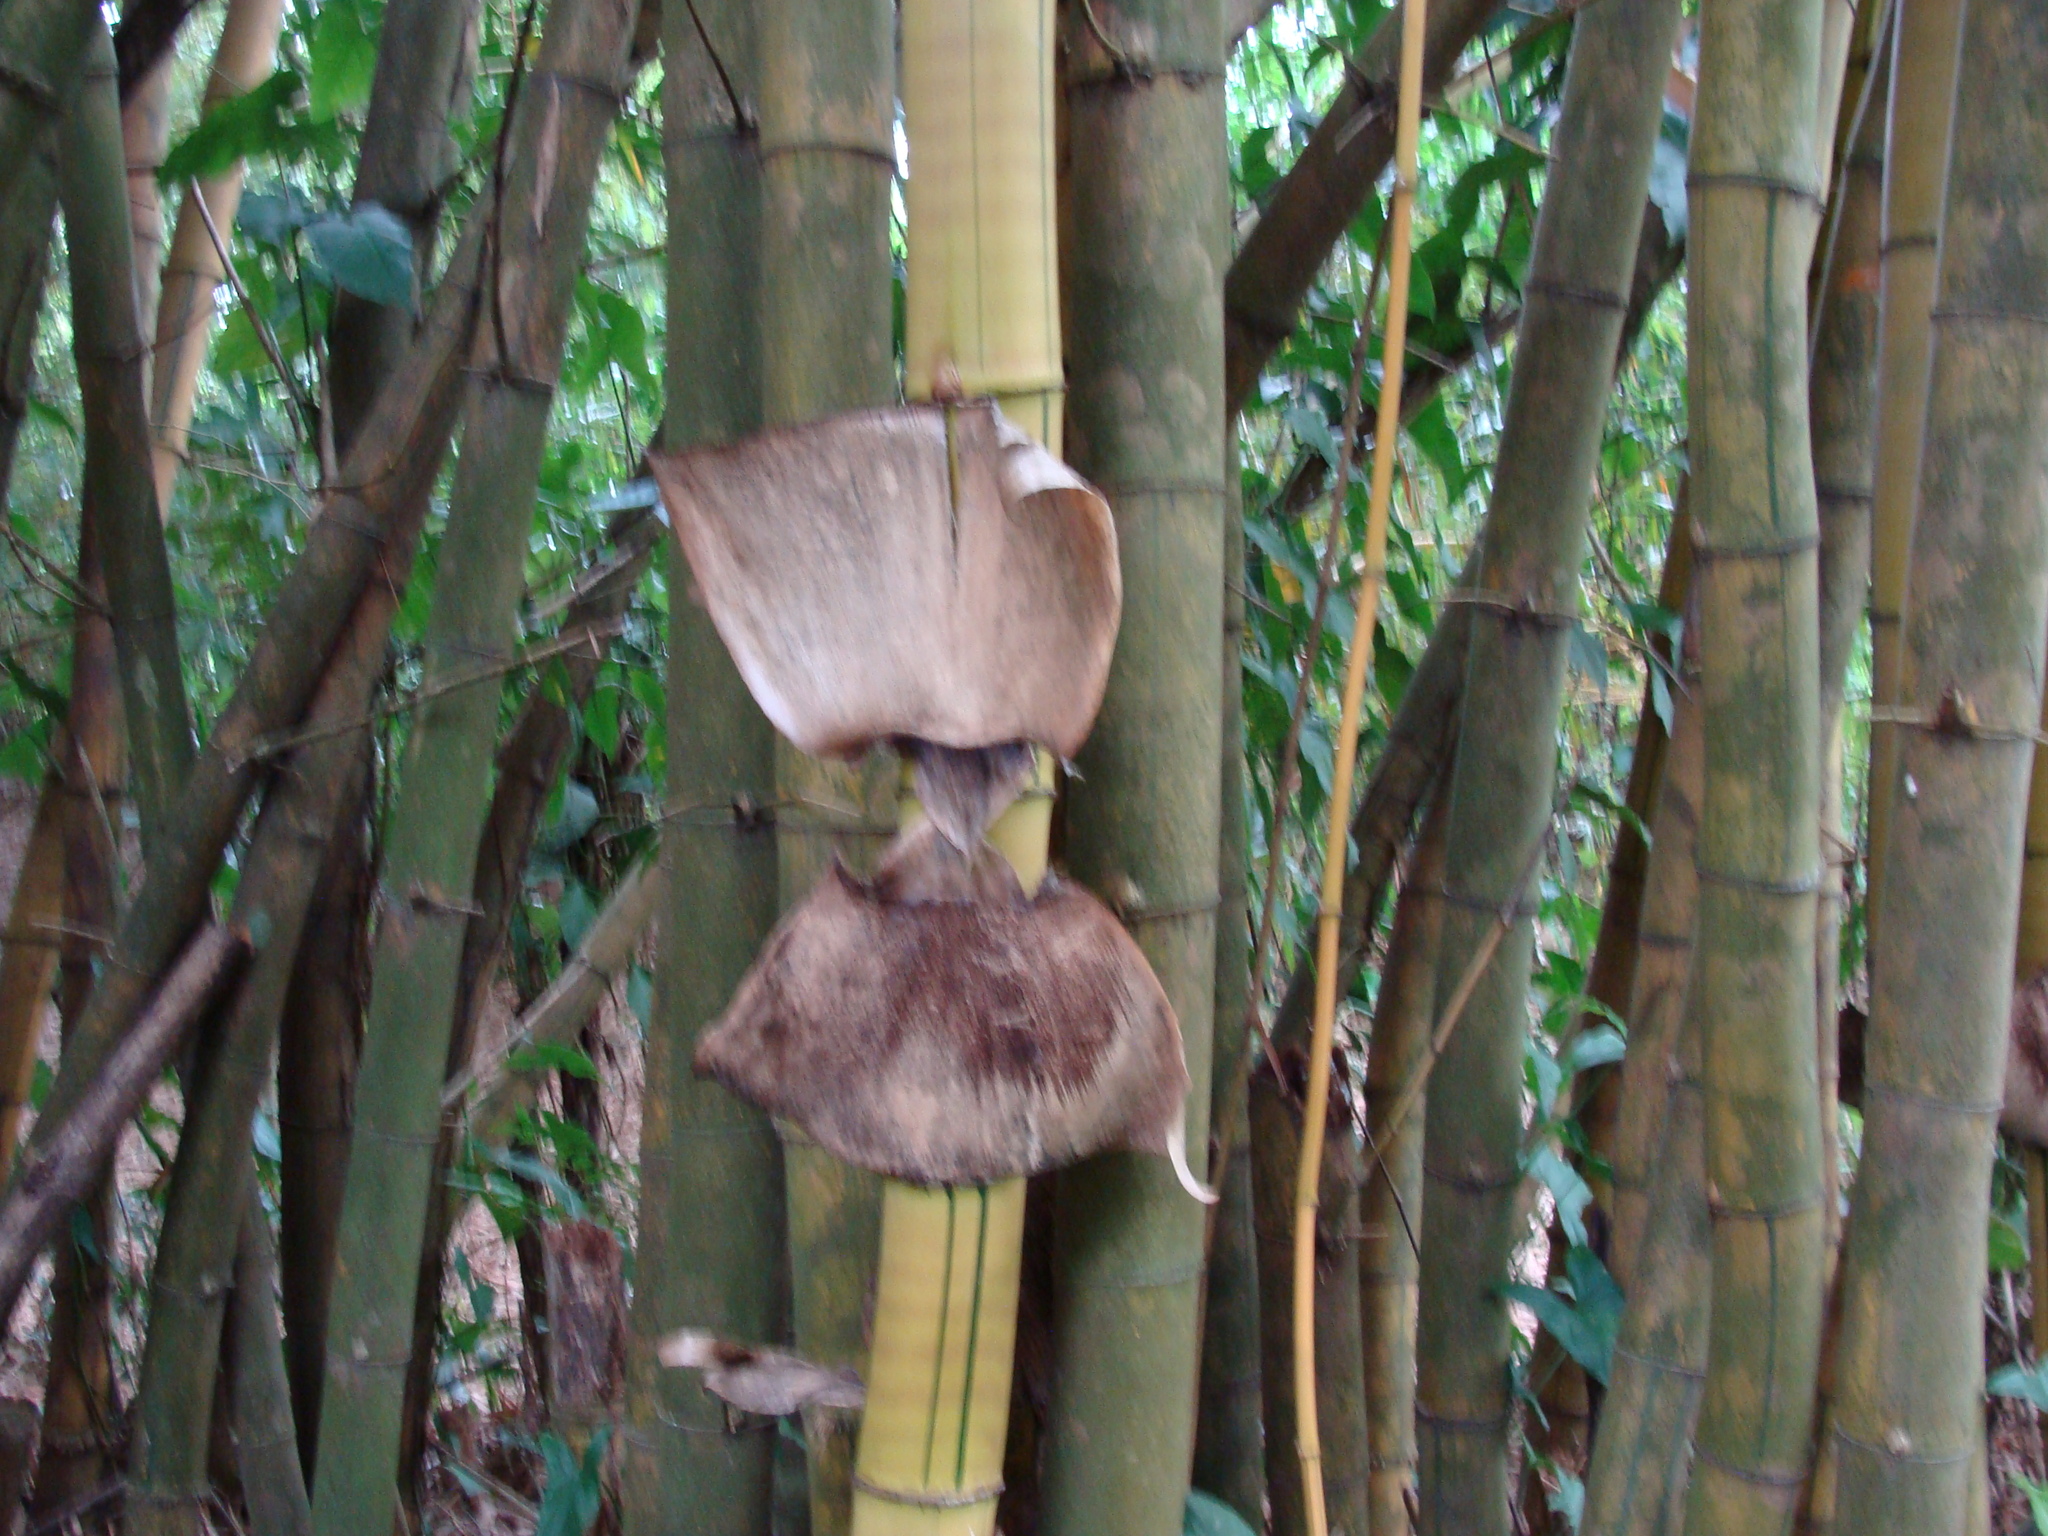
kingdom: Plantae
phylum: Tracheophyta
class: Liliopsida
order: Poales
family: Poaceae
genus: Bambusa
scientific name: Bambusa vulgaris
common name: Common bamboo
